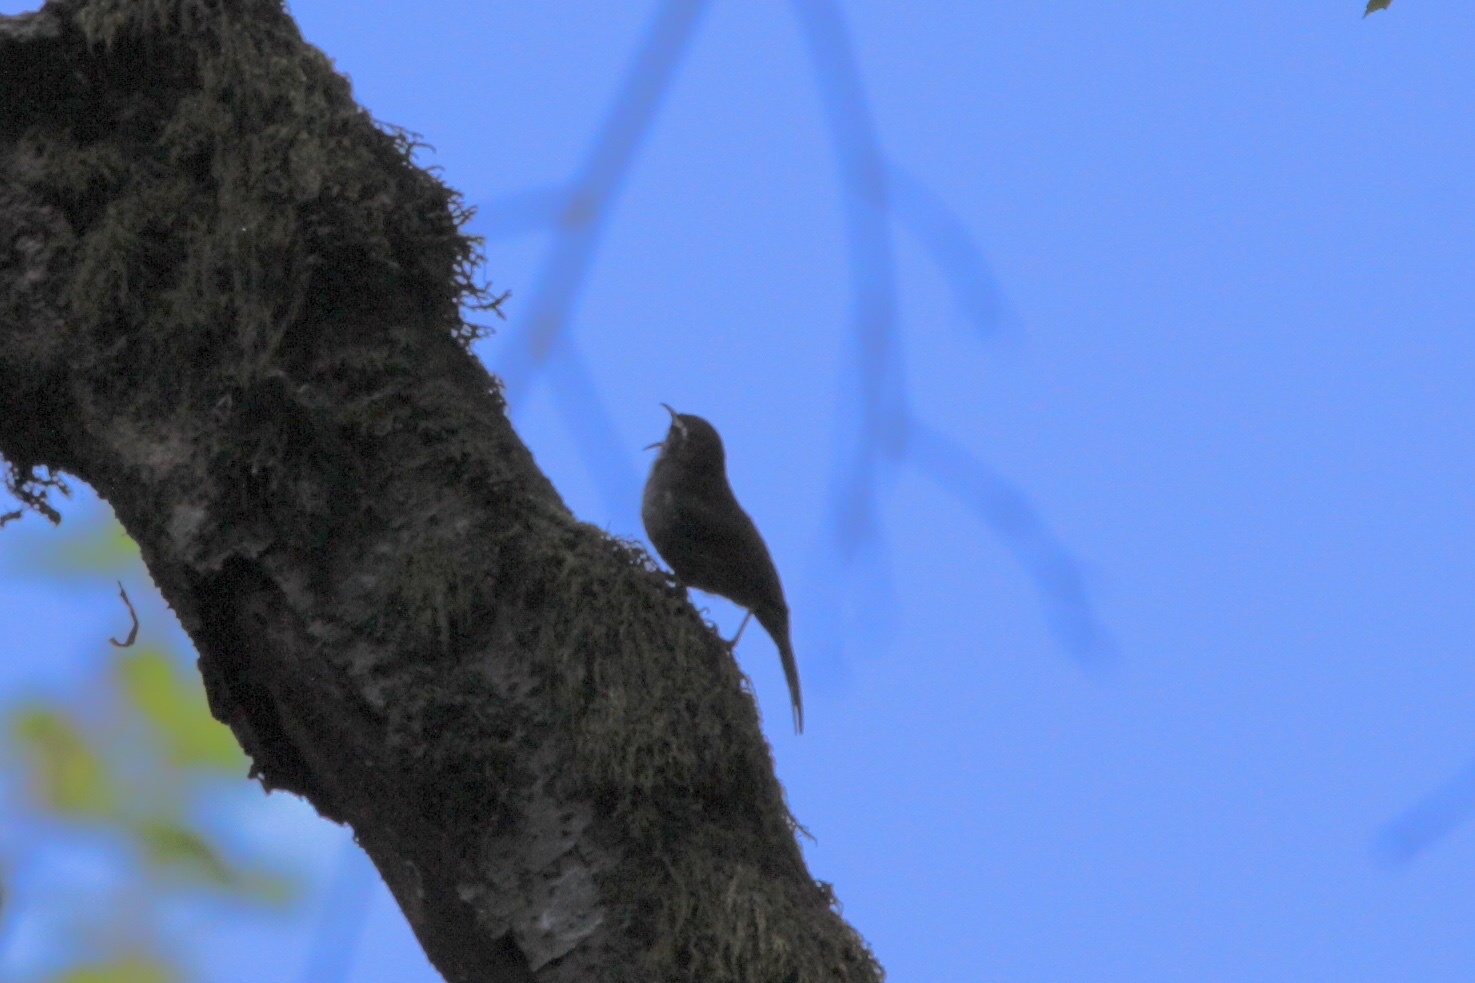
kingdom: Animalia
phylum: Chordata
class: Aves
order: Passeriformes
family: Troglodytidae
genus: Thryomanes
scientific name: Thryomanes bewickii
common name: Bewick's wren
